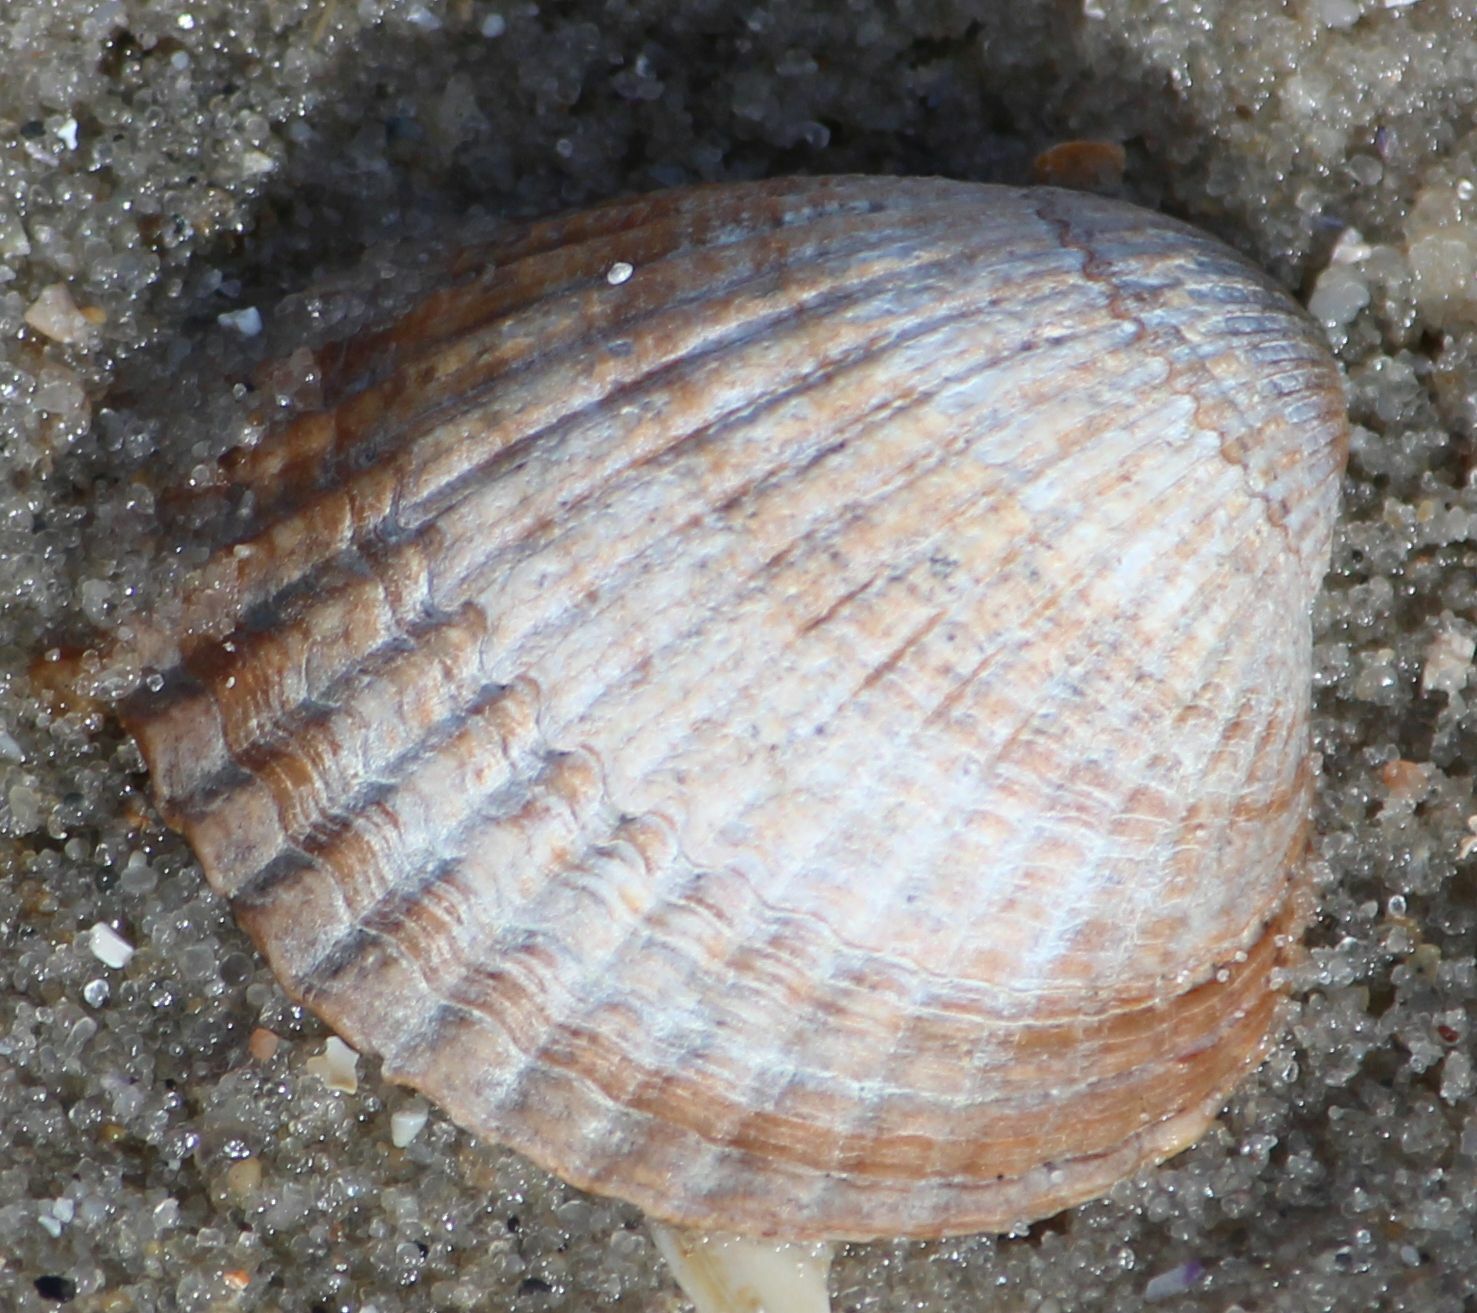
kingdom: Animalia
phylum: Mollusca
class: Bivalvia
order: Cardiida
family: Cardiidae
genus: Cerastoderma
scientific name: Cerastoderma edule
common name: Common cockle
